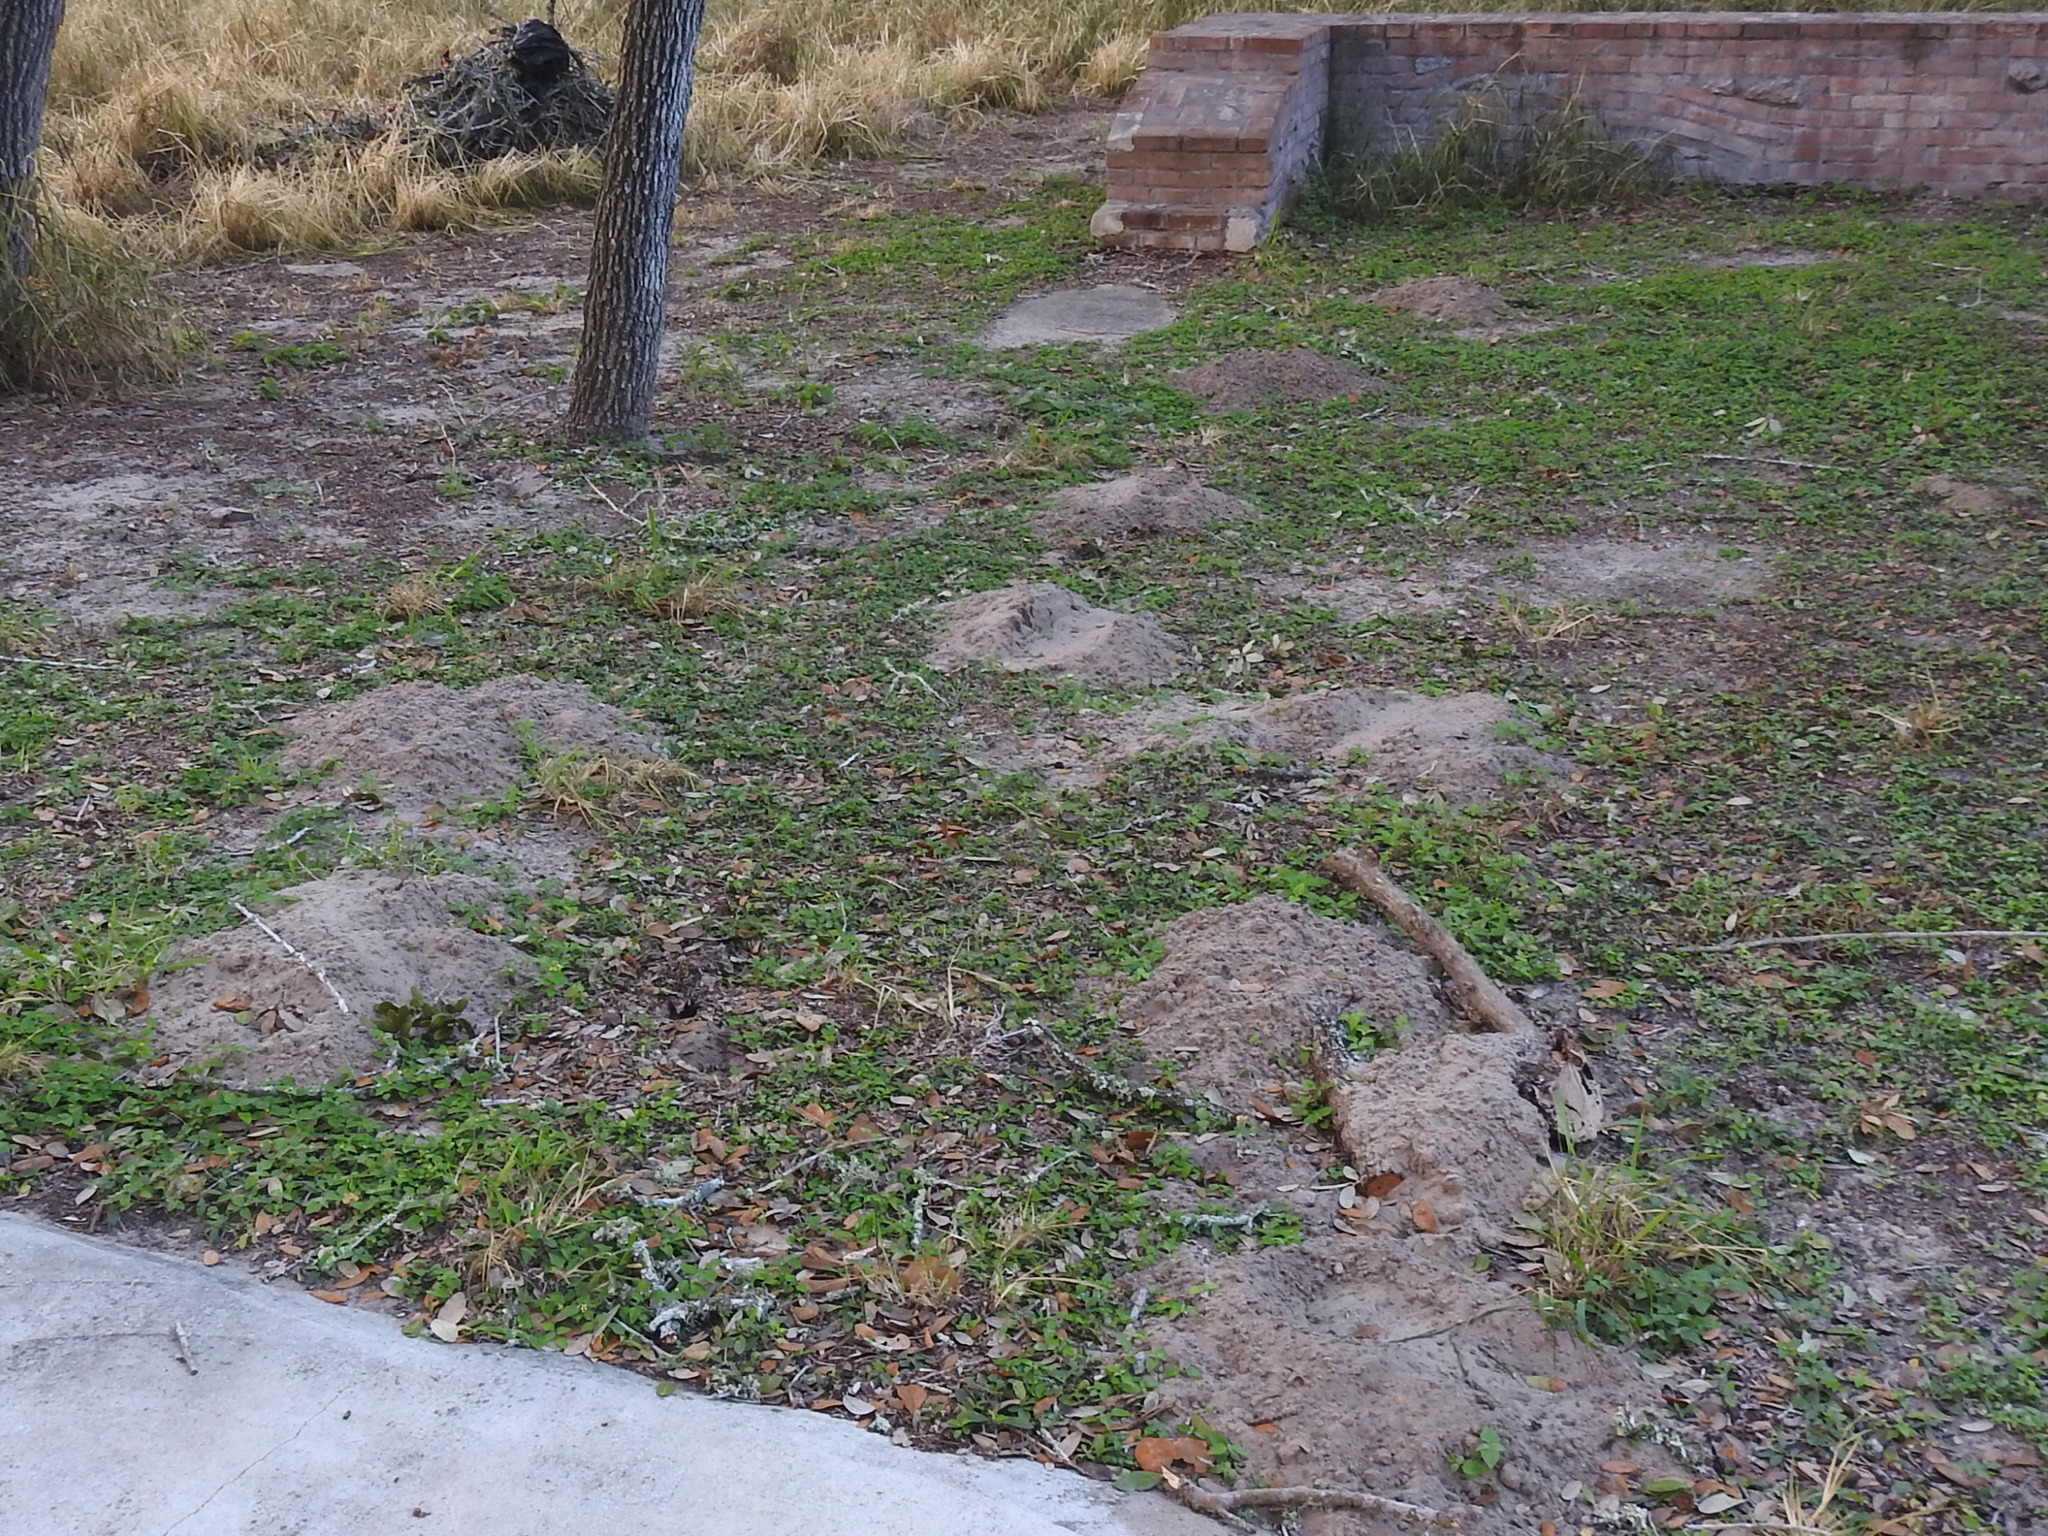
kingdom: Animalia
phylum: Chordata
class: Mammalia
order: Rodentia
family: Geomyidae
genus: Geomys
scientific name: Geomys personatus
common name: Texas pocket gopher
